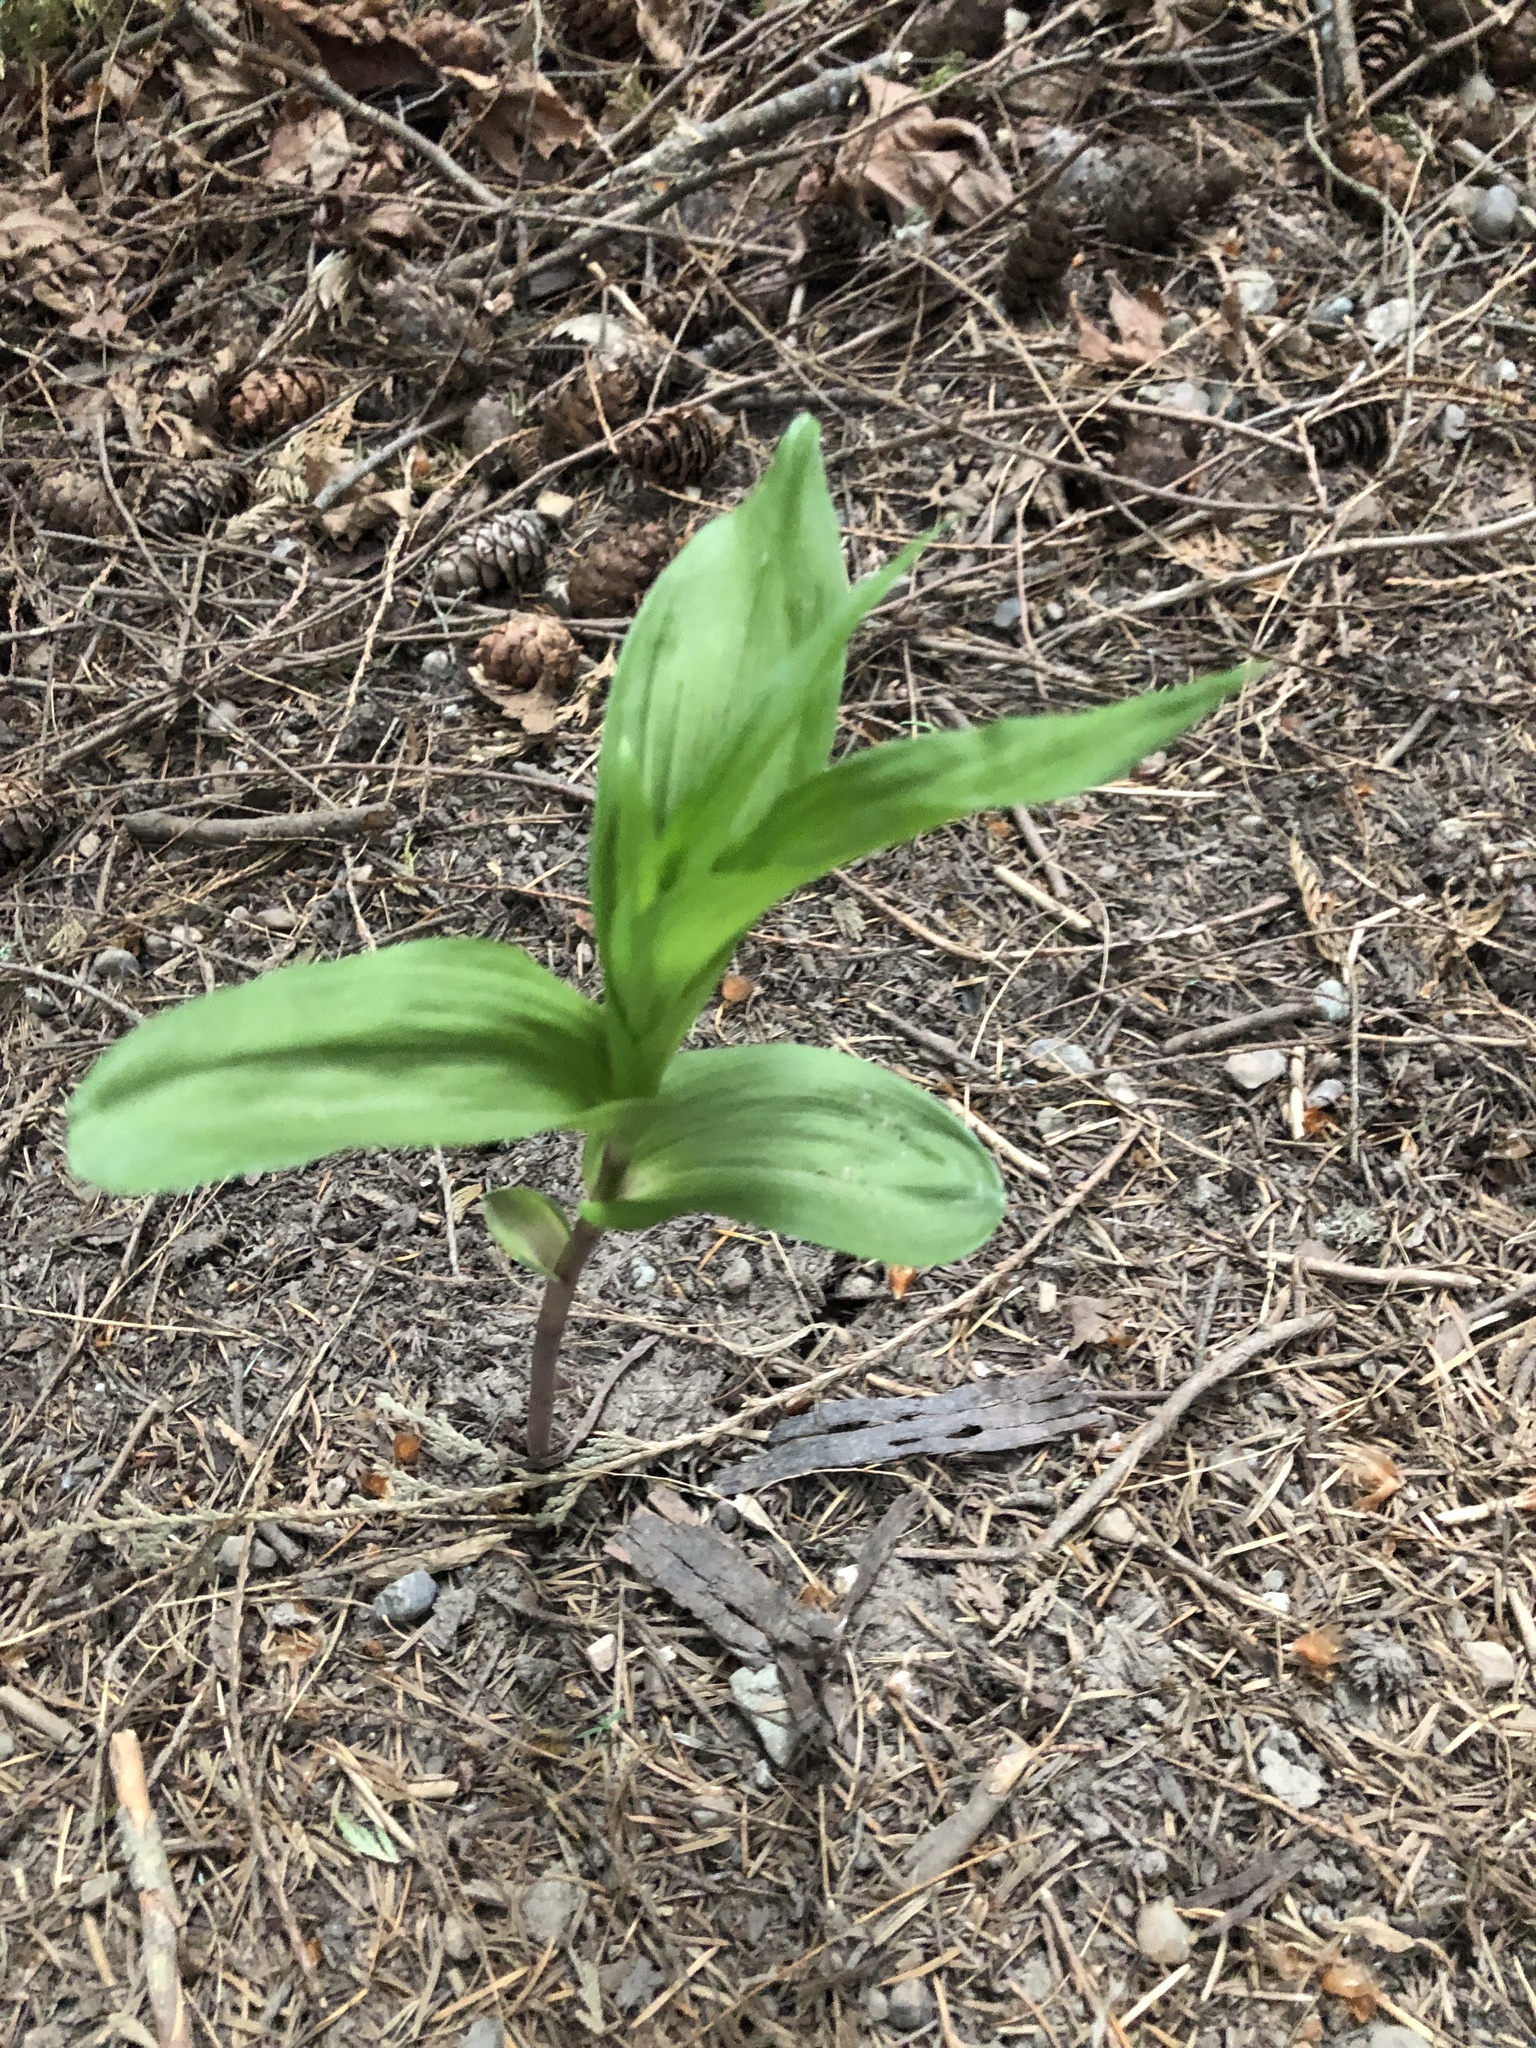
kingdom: Plantae
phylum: Tracheophyta
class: Liliopsida
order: Asparagales
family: Orchidaceae
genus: Epipactis
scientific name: Epipactis helleborine
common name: Broad-leaved helleborine
